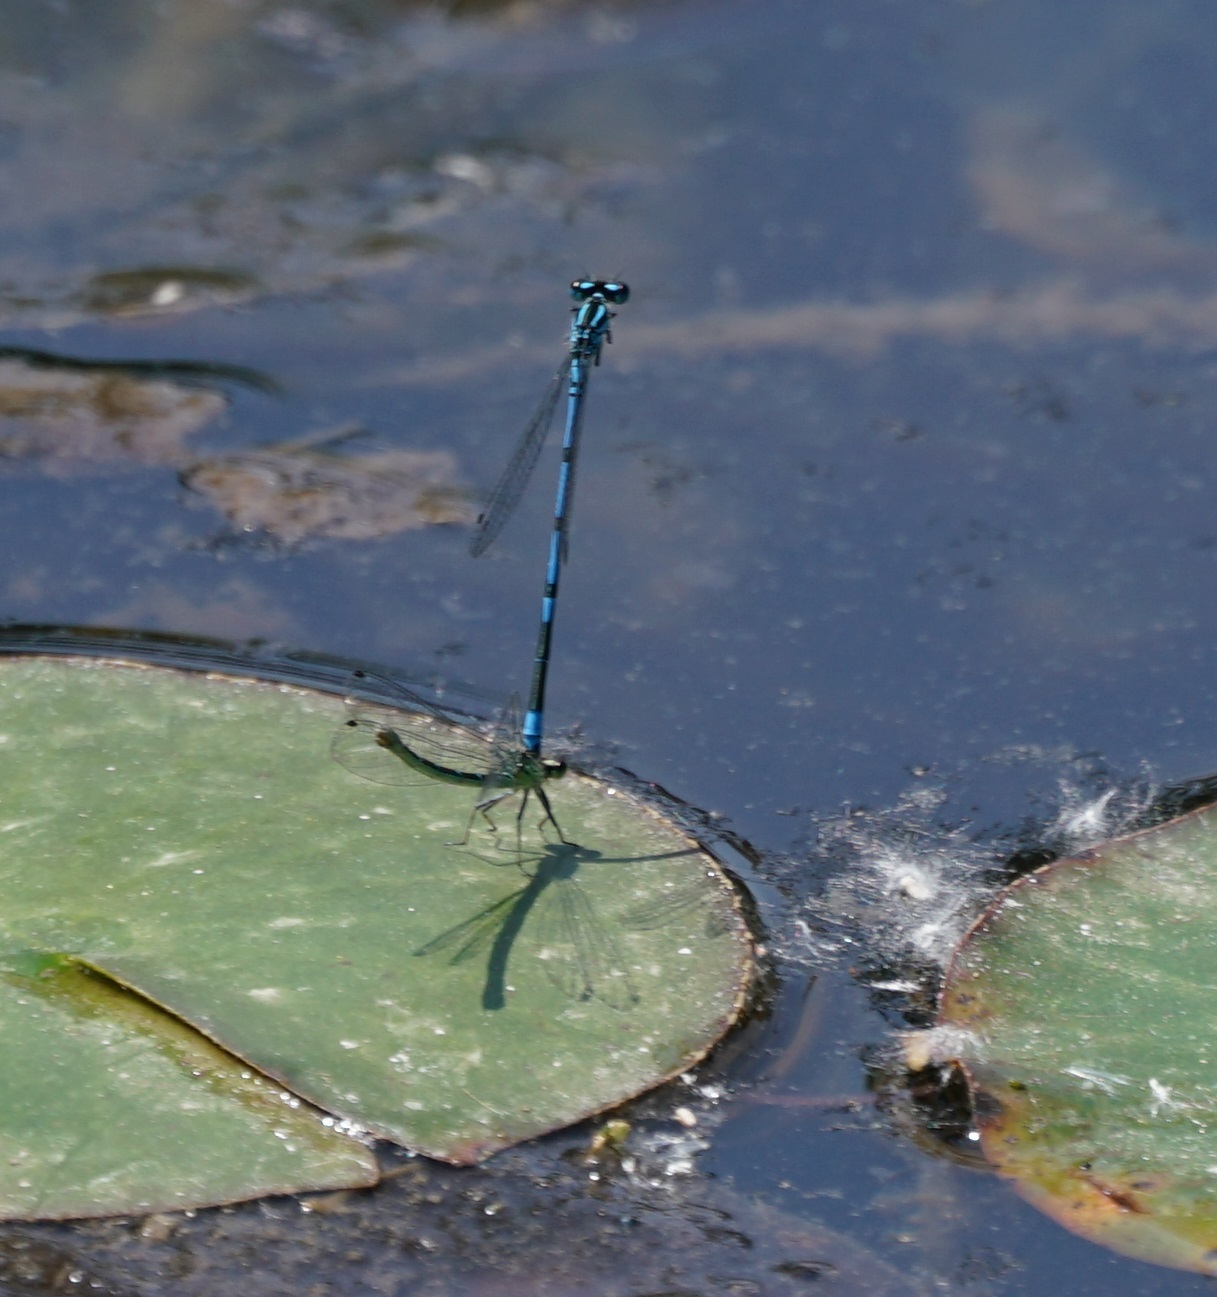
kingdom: Animalia
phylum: Arthropoda
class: Insecta
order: Odonata
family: Coenagrionidae
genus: Coenagrion
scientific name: Coenagrion puella
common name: Azure damselfly
